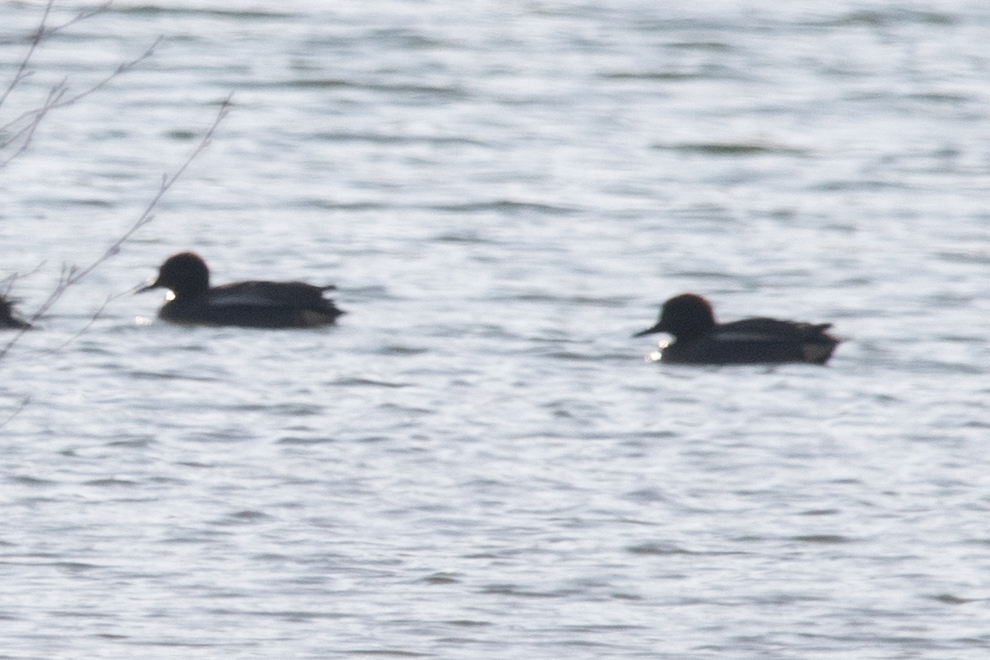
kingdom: Animalia
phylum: Chordata
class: Aves
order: Anseriformes
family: Anatidae
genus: Anas
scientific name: Anas crecca
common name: Eurasian teal
